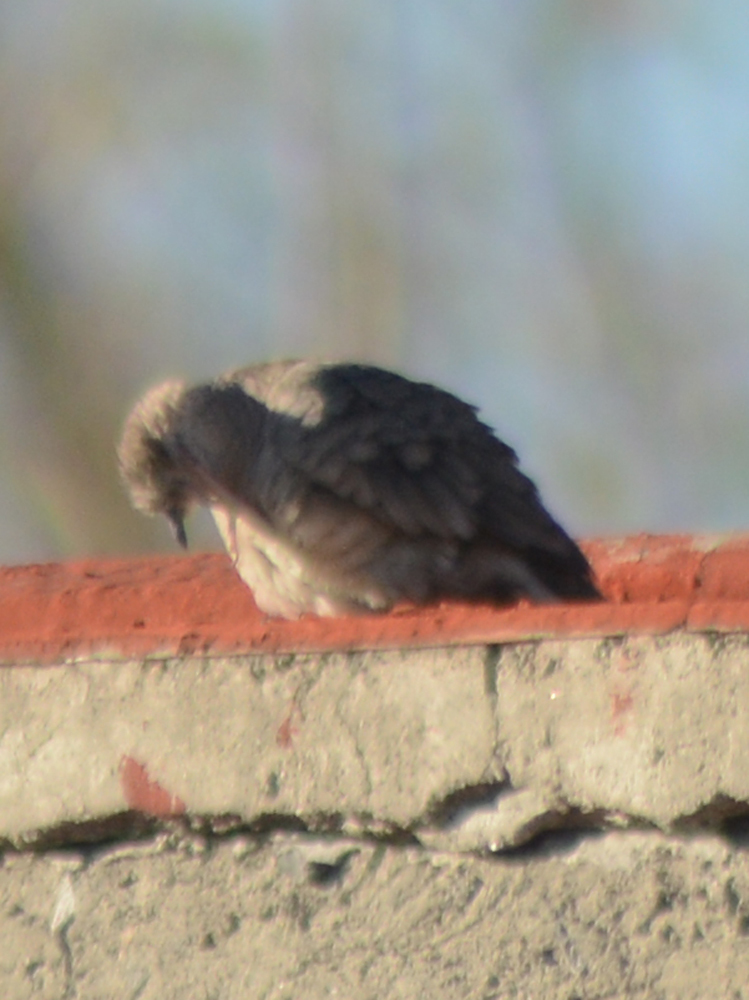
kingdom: Animalia
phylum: Chordata
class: Aves
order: Columbiformes
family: Columbidae
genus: Columbina
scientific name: Columbina inca
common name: Inca dove
